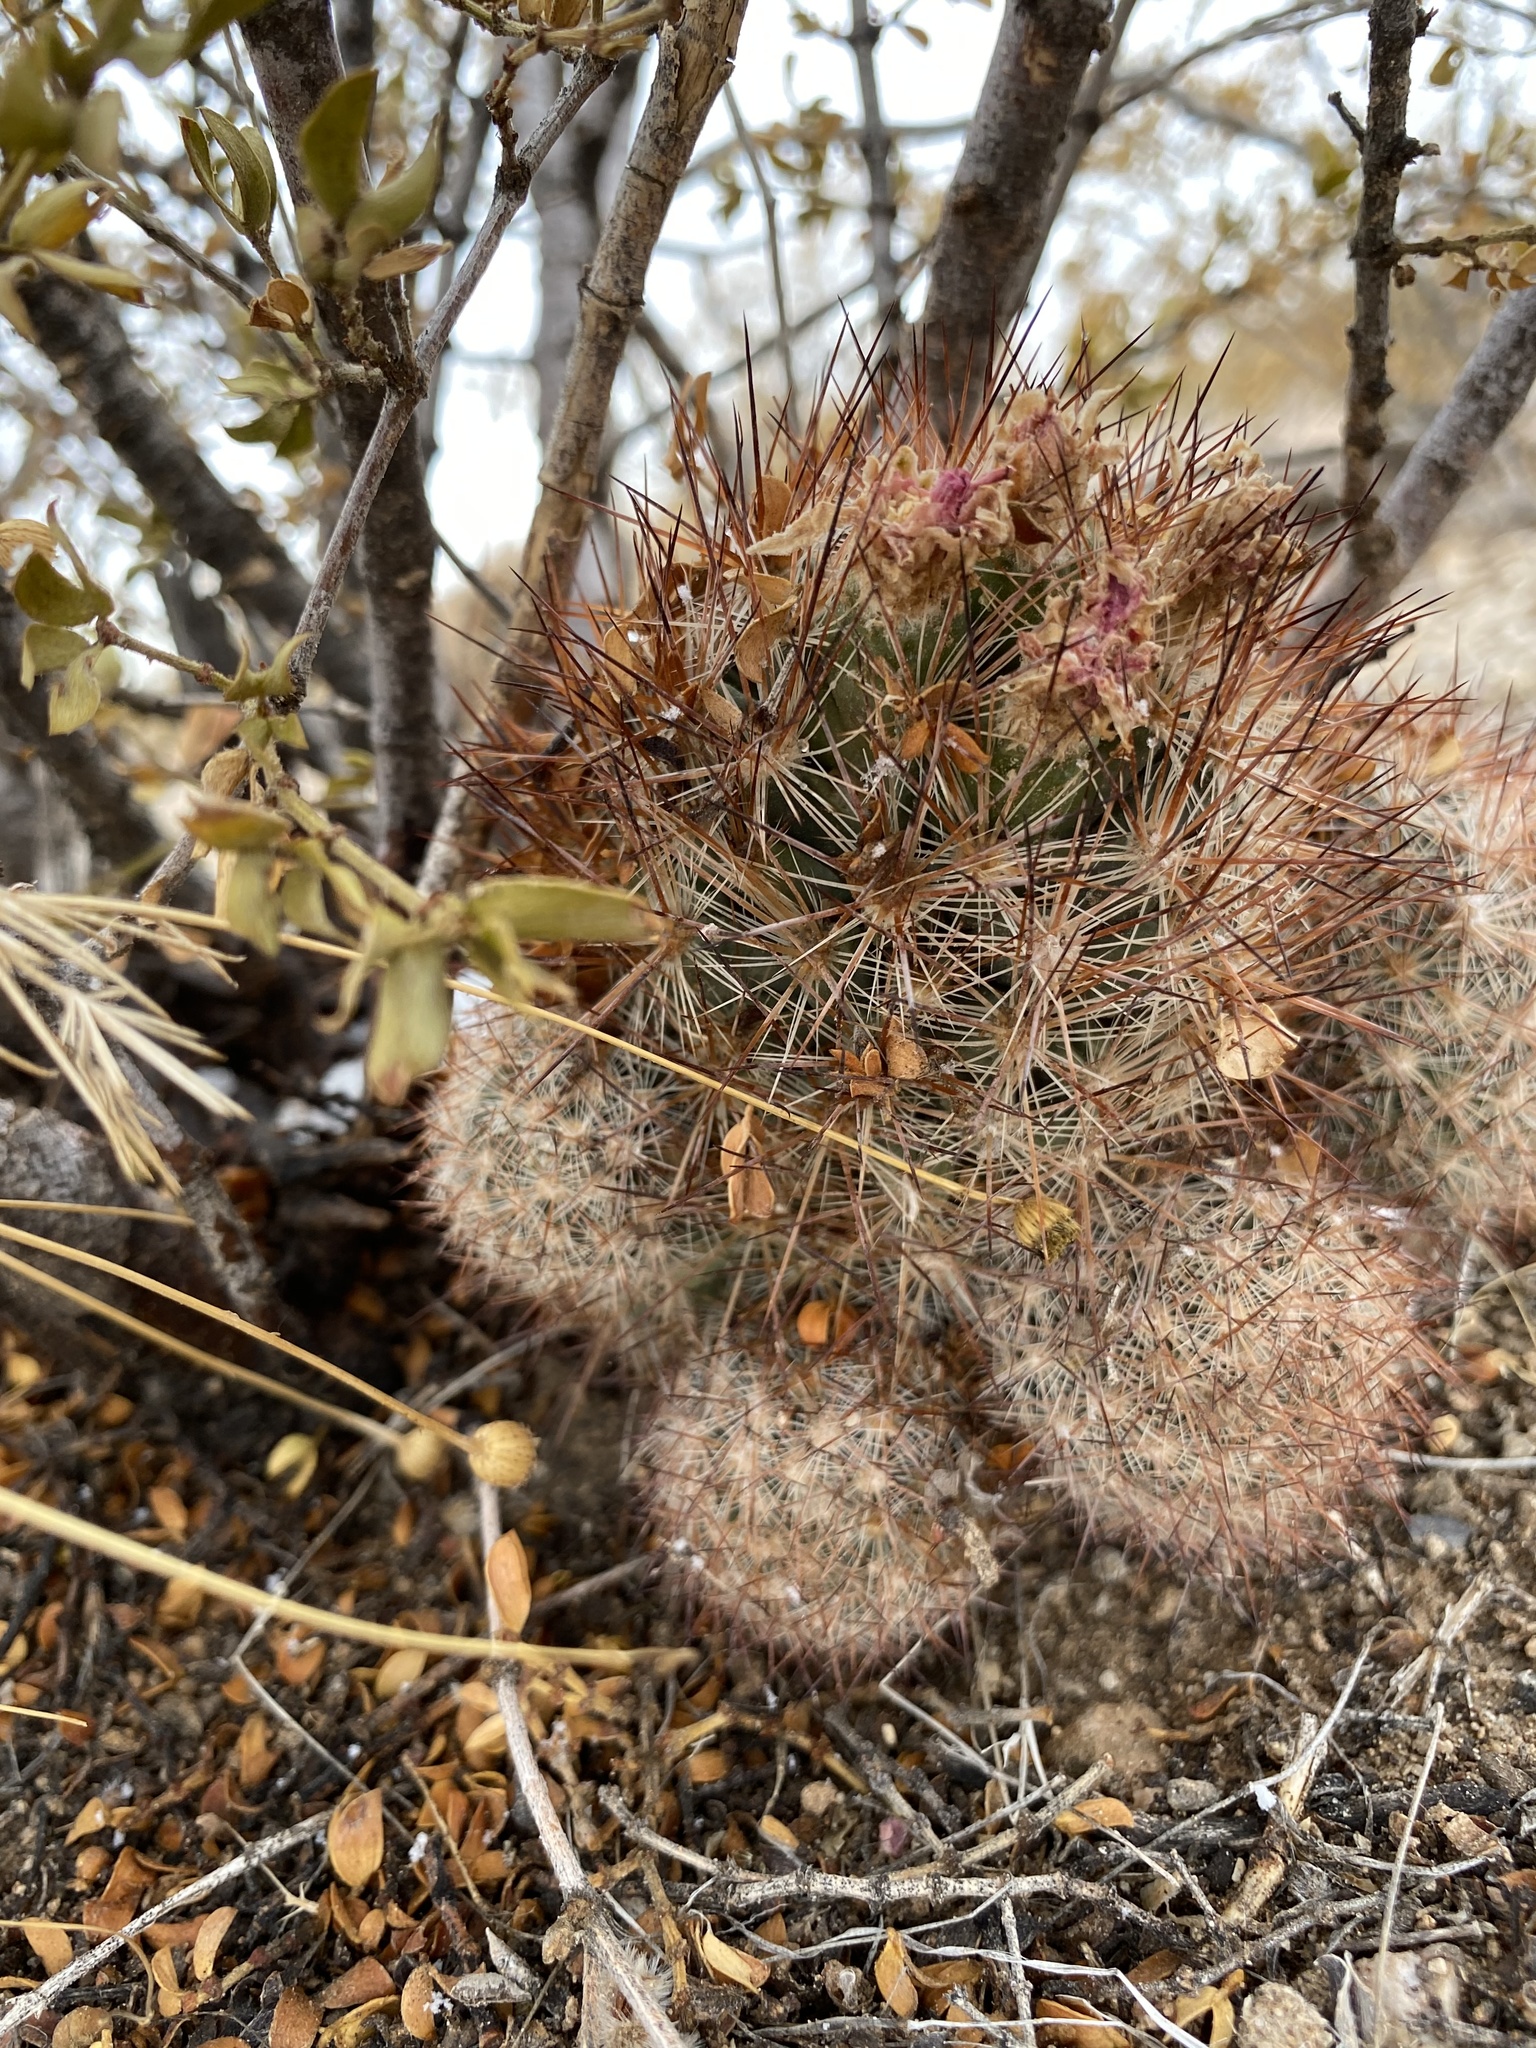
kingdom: Plantae
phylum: Tracheophyta
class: Magnoliopsida
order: Caryophyllales
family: Cactaceae
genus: Pelecyphora
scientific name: Pelecyphora vivipara
